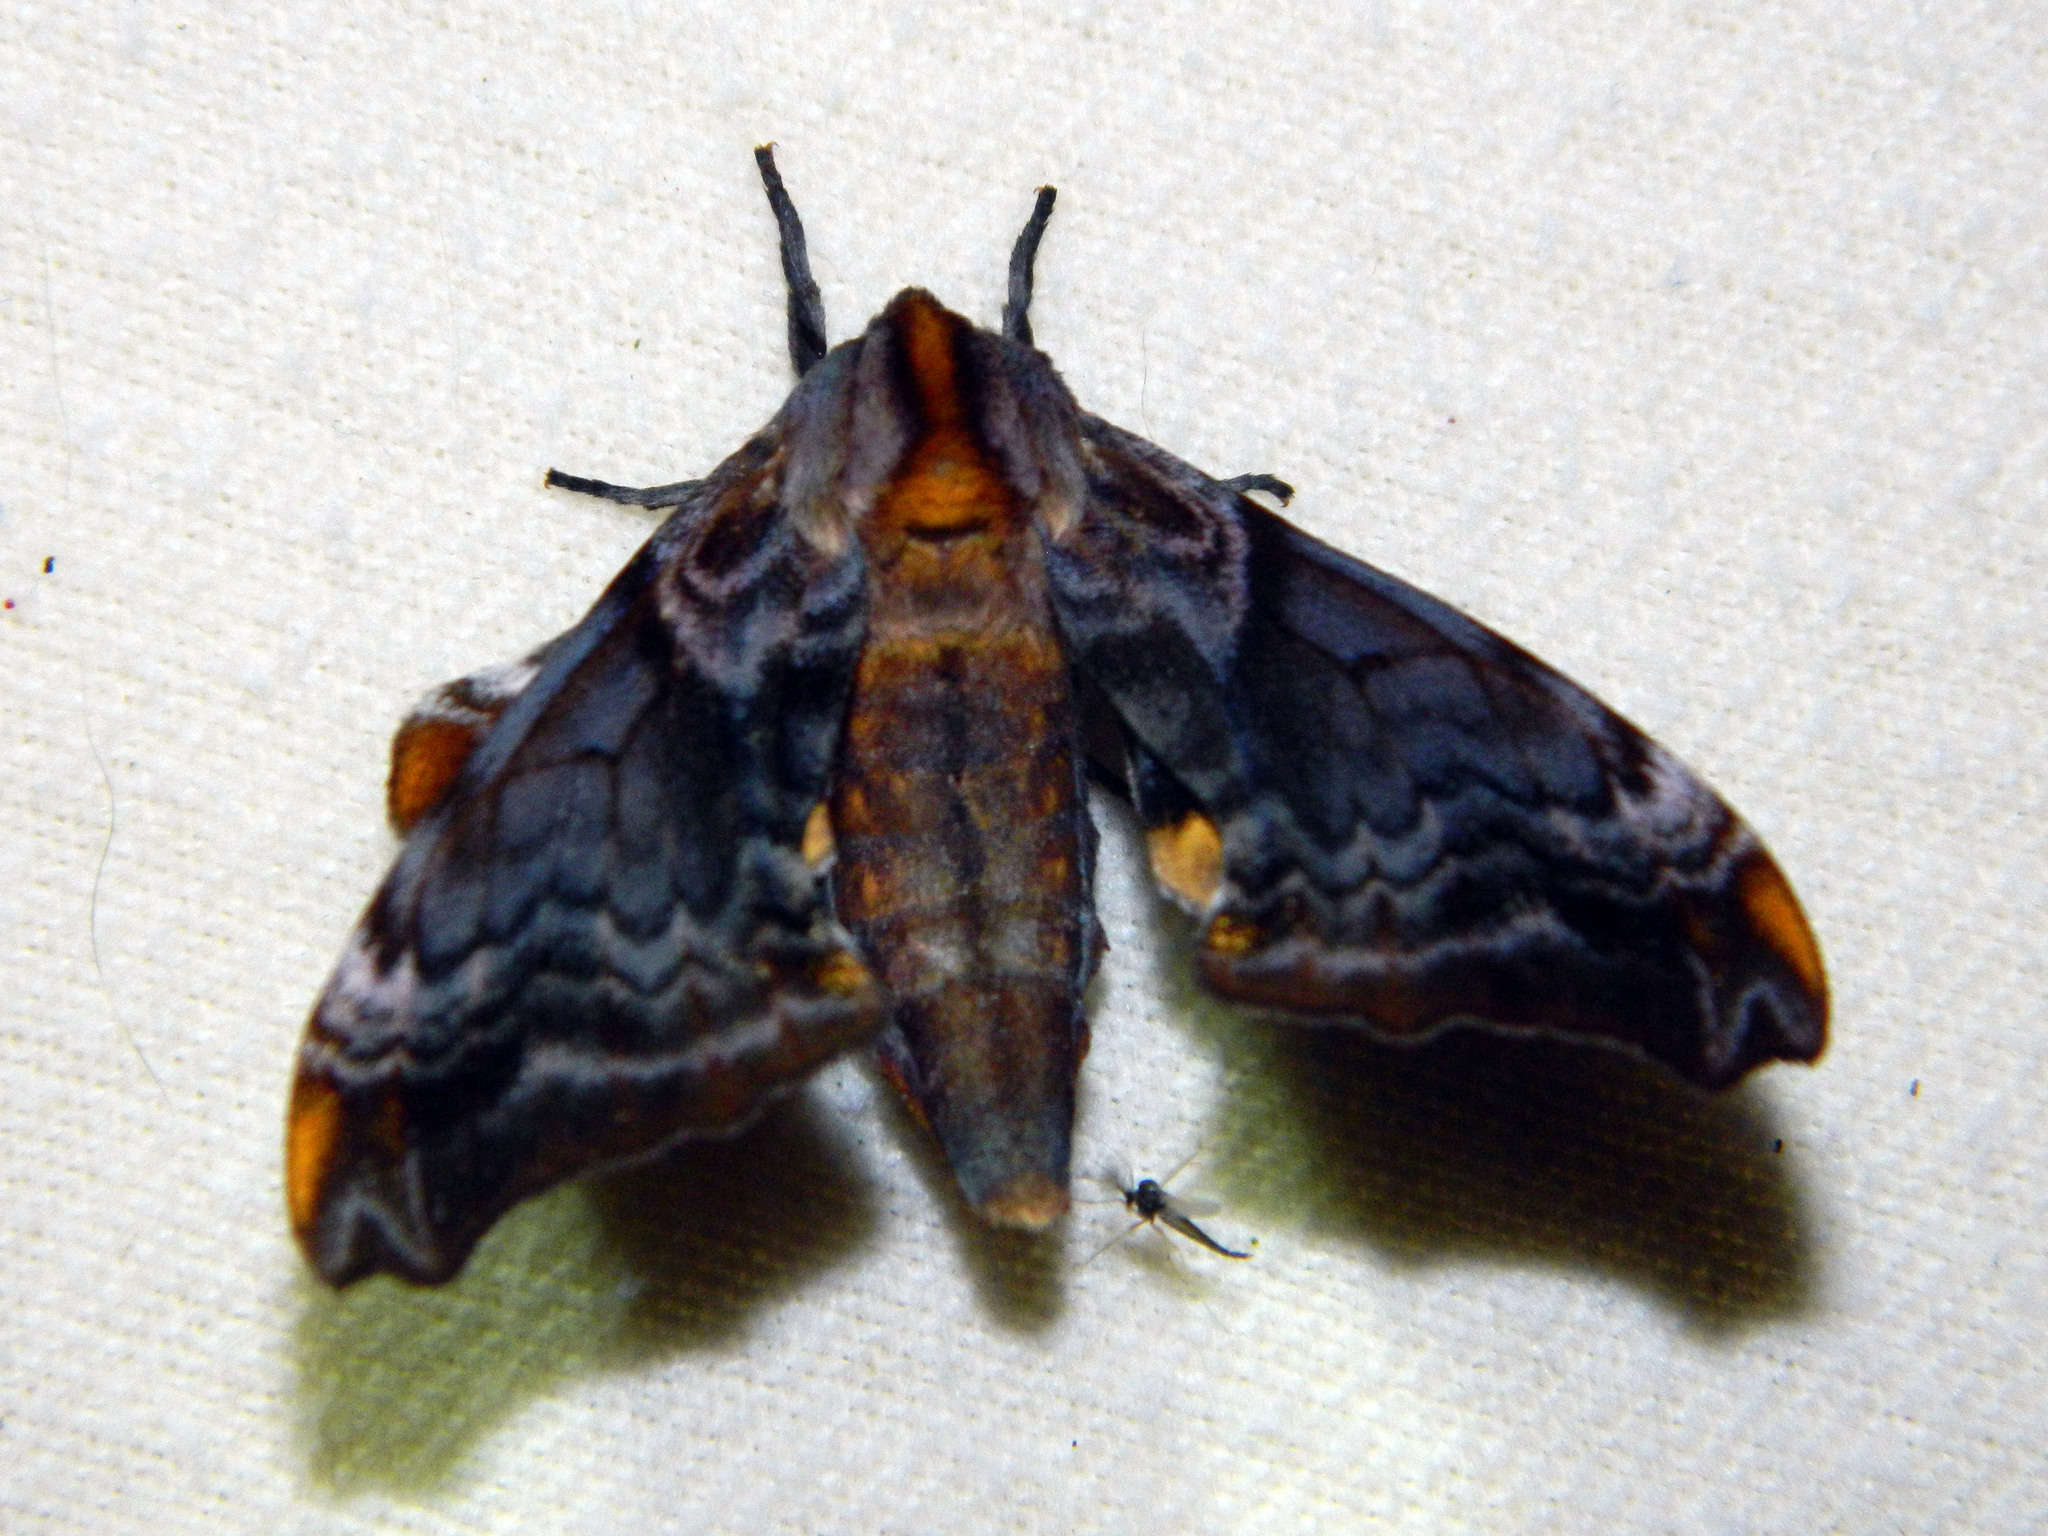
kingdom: Animalia
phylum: Arthropoda
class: Insecta
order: Lepidoptera
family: Sphingidae
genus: Paonias
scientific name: Paonias myops
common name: Small-eyed sphinx
